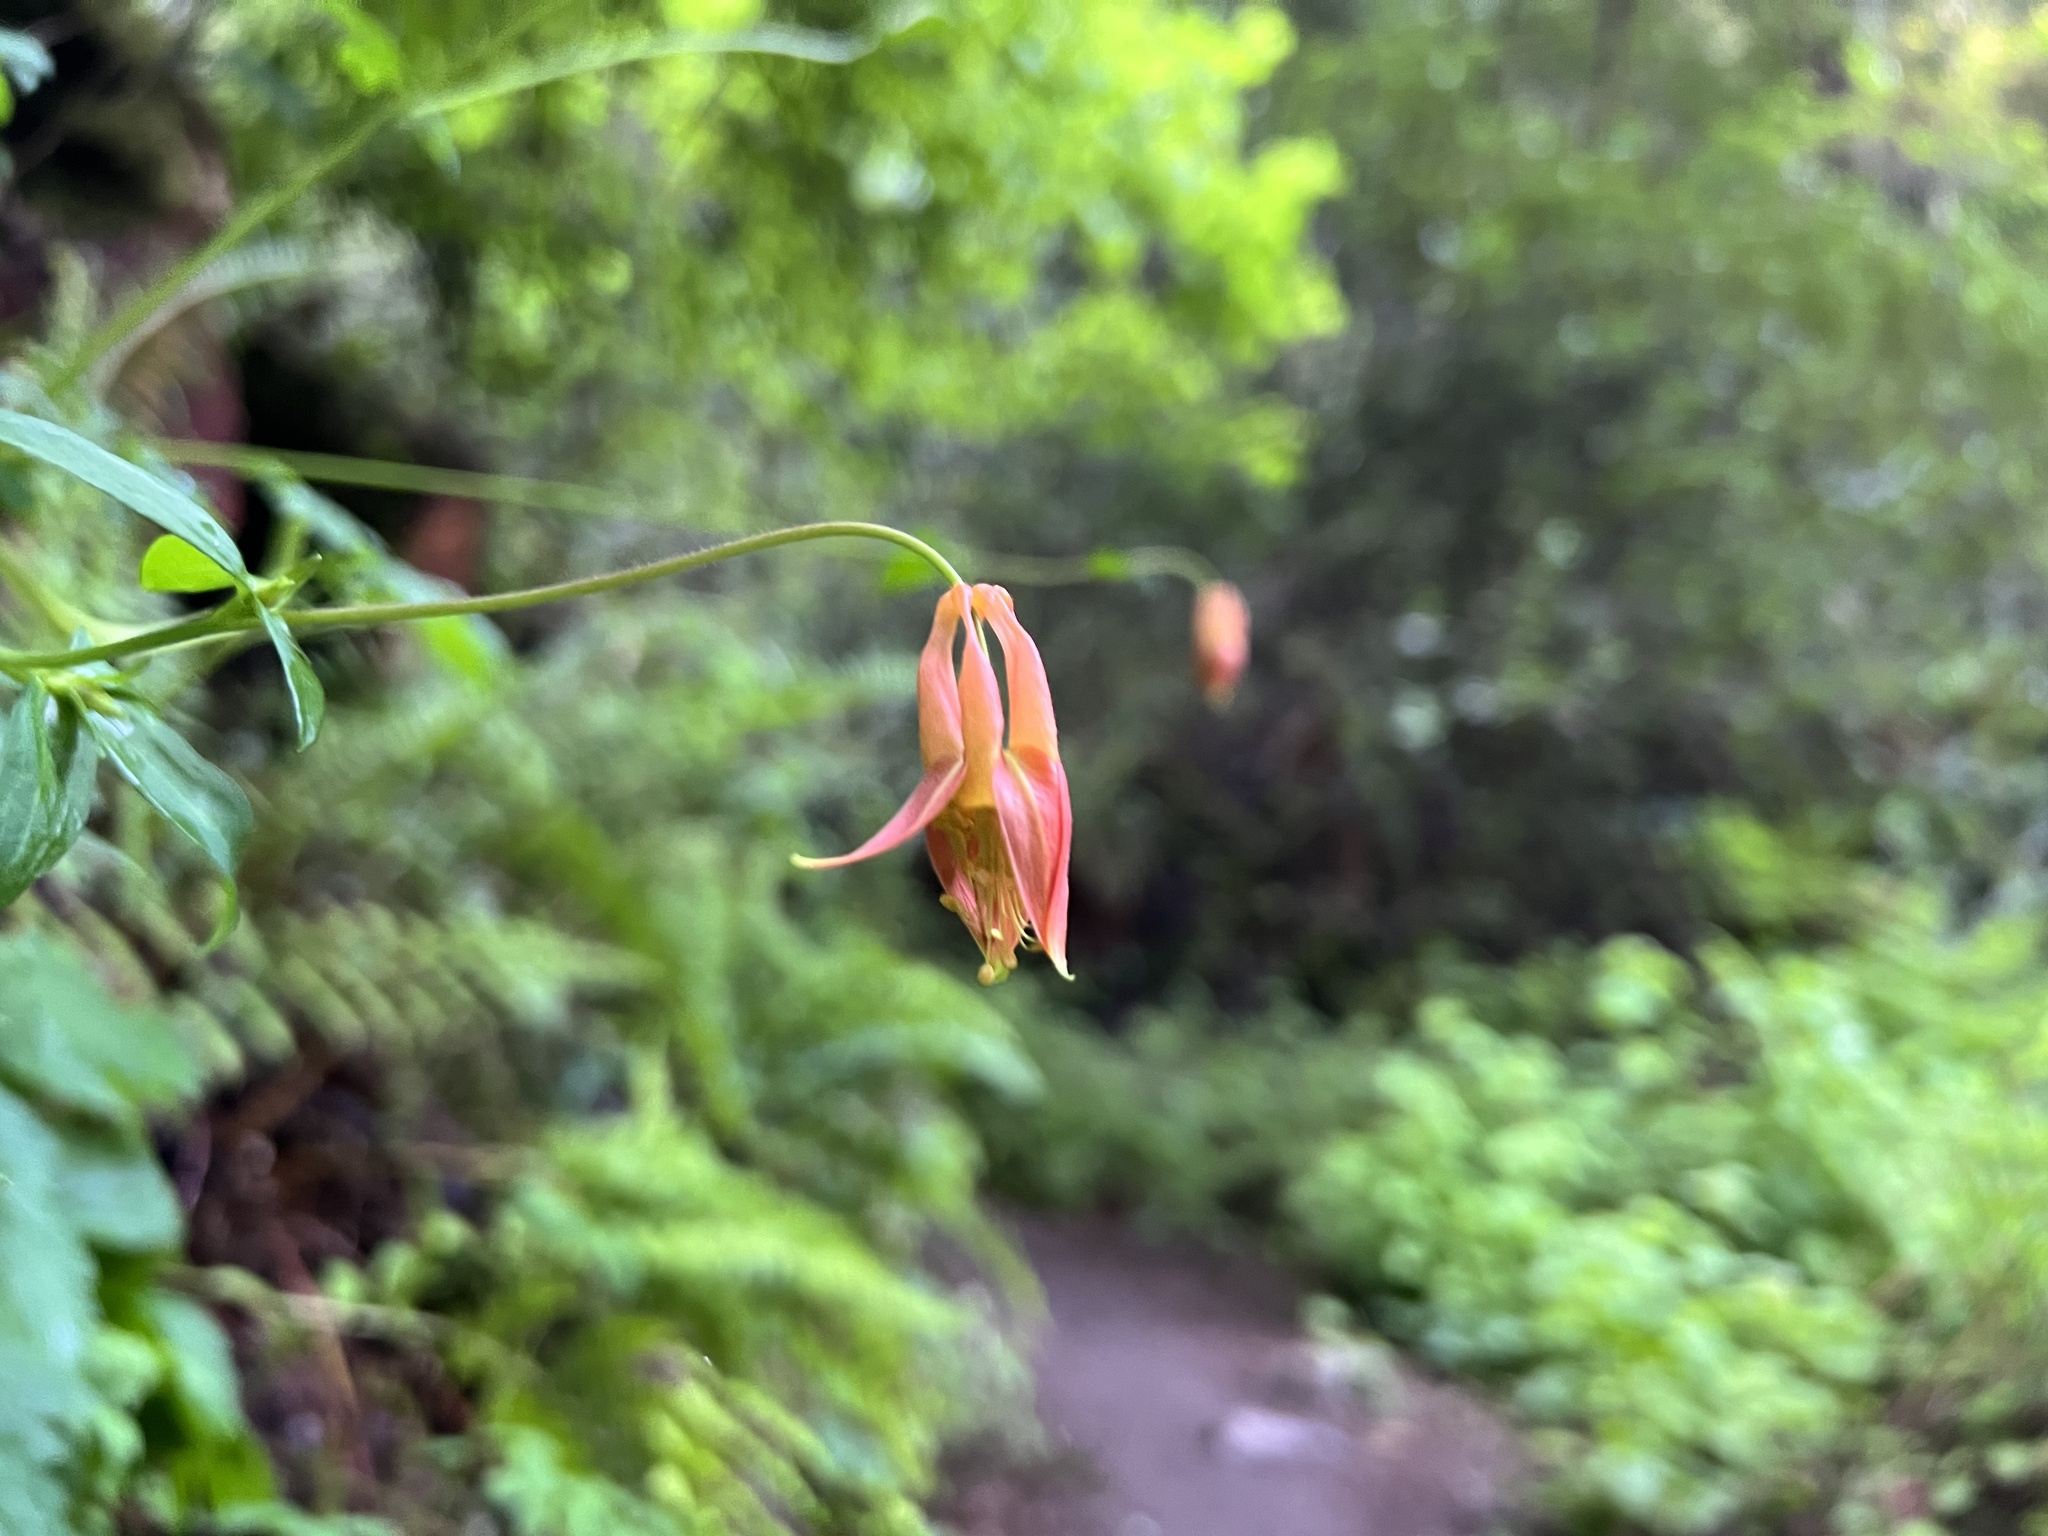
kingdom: Plantae
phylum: Tracheophyta
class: Magnoliopsida
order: Ranunculales
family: Ranunculaceae
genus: Aquilegia
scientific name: Aquilegia formosa
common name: Sitka columbine
